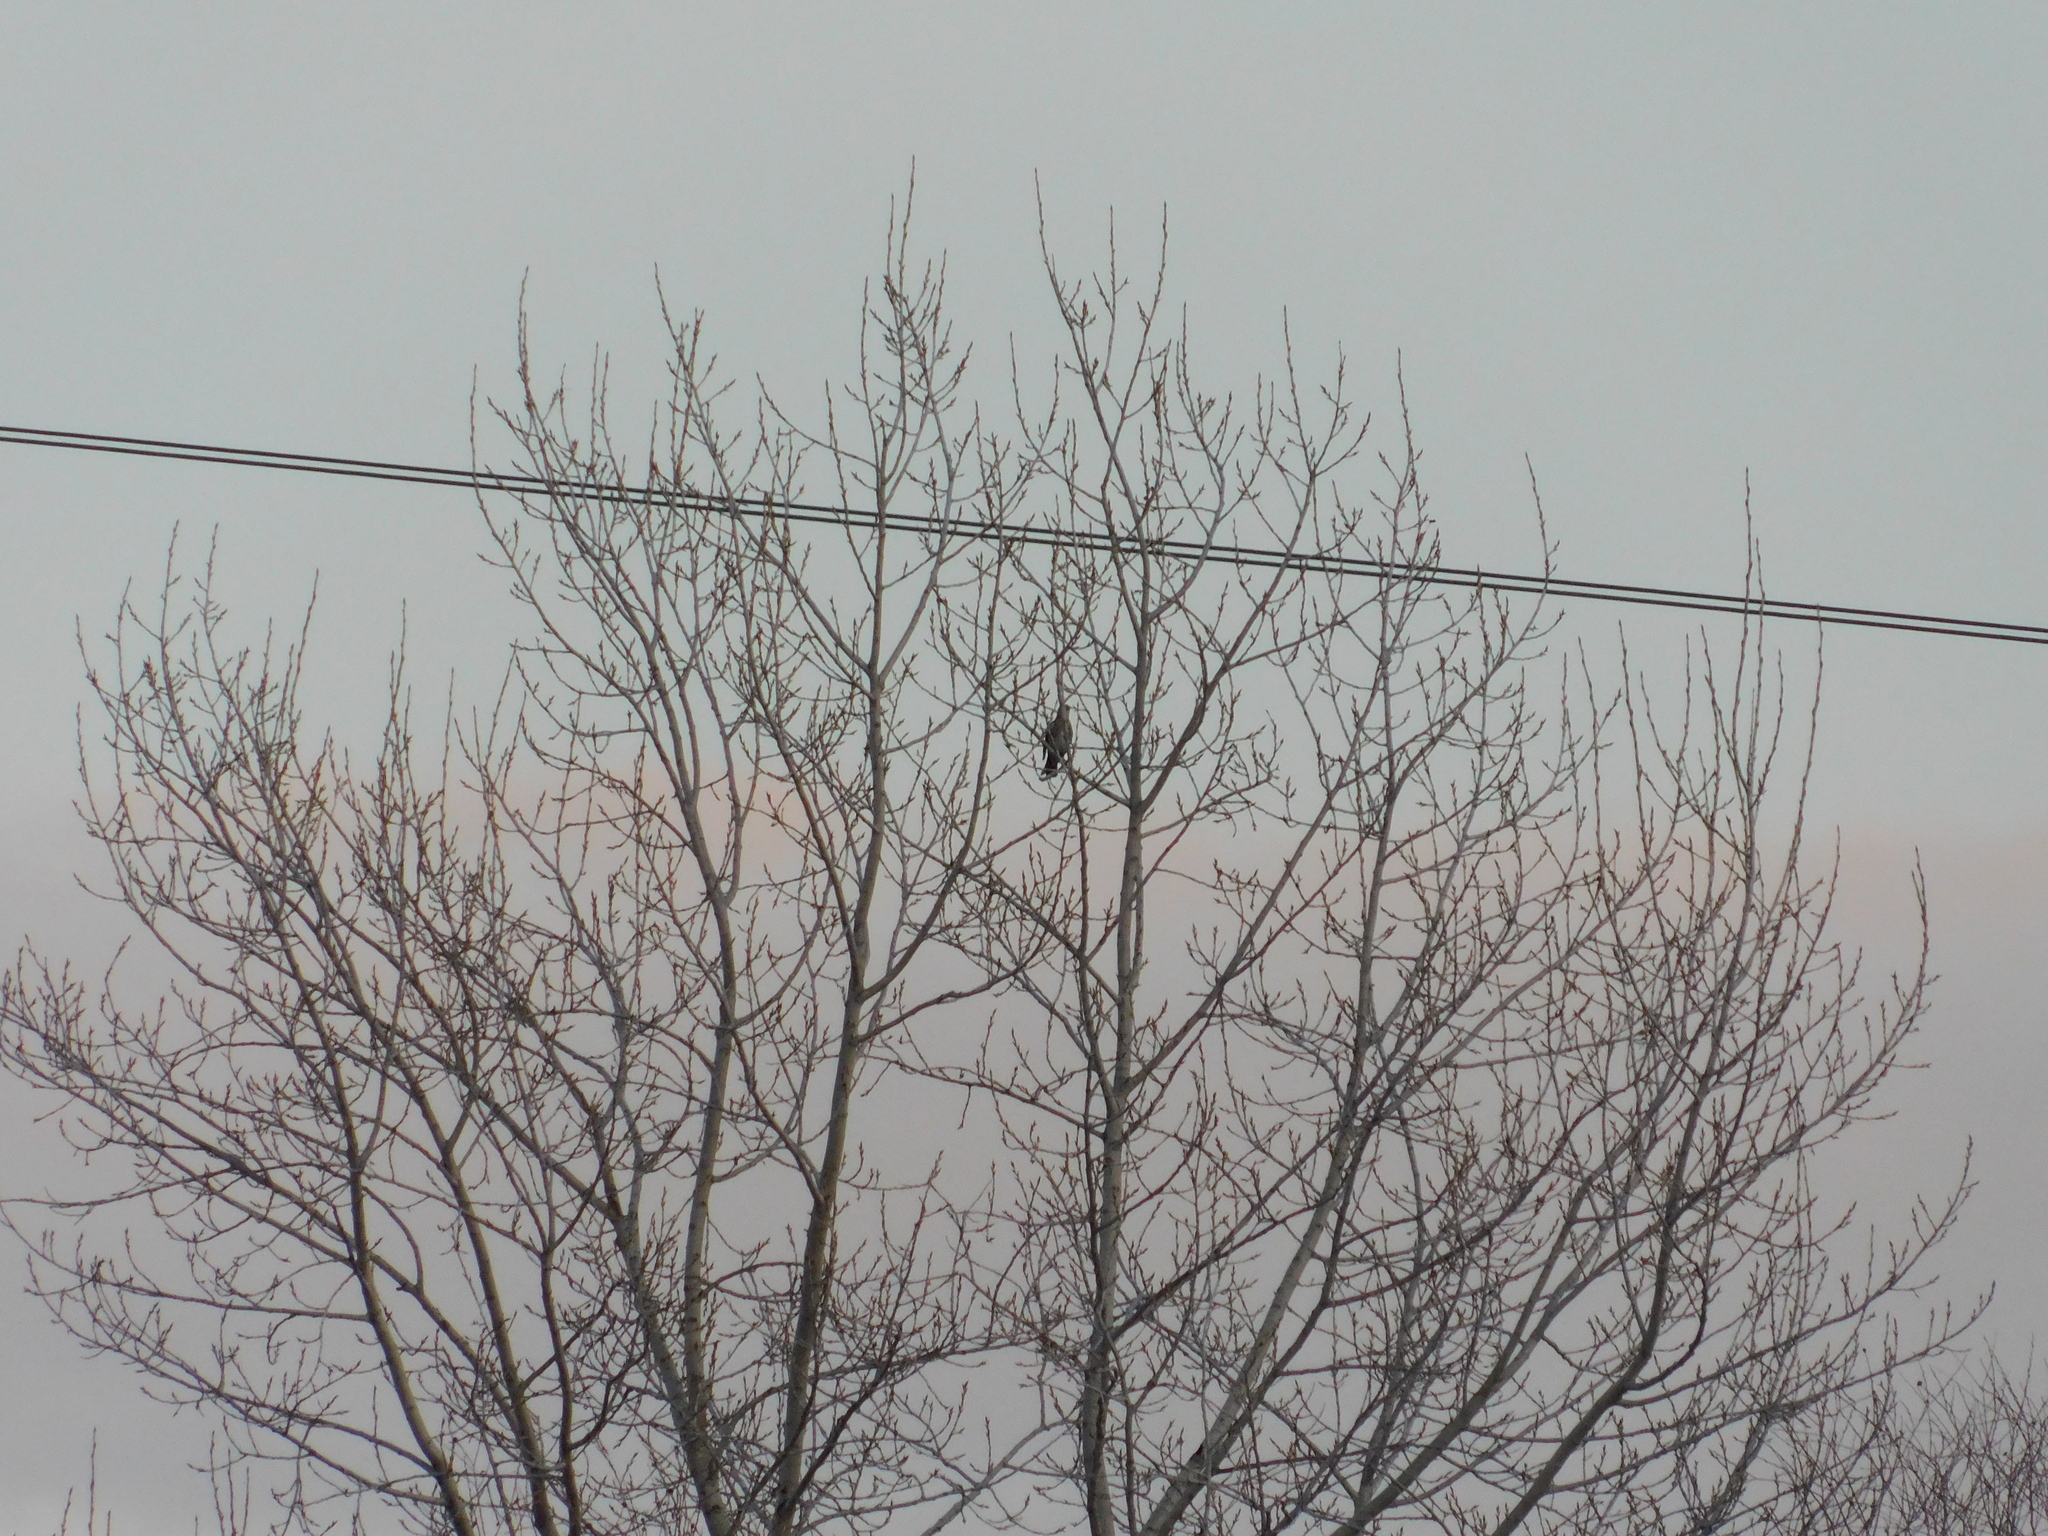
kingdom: Animalia
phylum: Chordata
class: Aves
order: Passeriformes
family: Turdidae
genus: Turdus
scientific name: Turdus philomelos
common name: Song thrush
